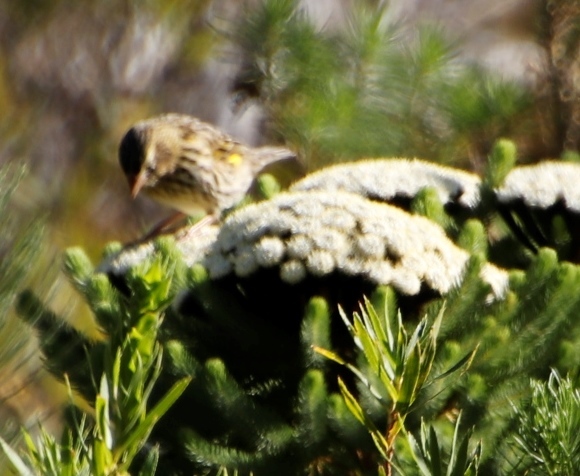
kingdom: Animalia
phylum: Chordata
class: Aves
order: Passeriformes
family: Ploceidae
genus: Euplectes
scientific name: Euplectes capensis
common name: Yellow bishop
